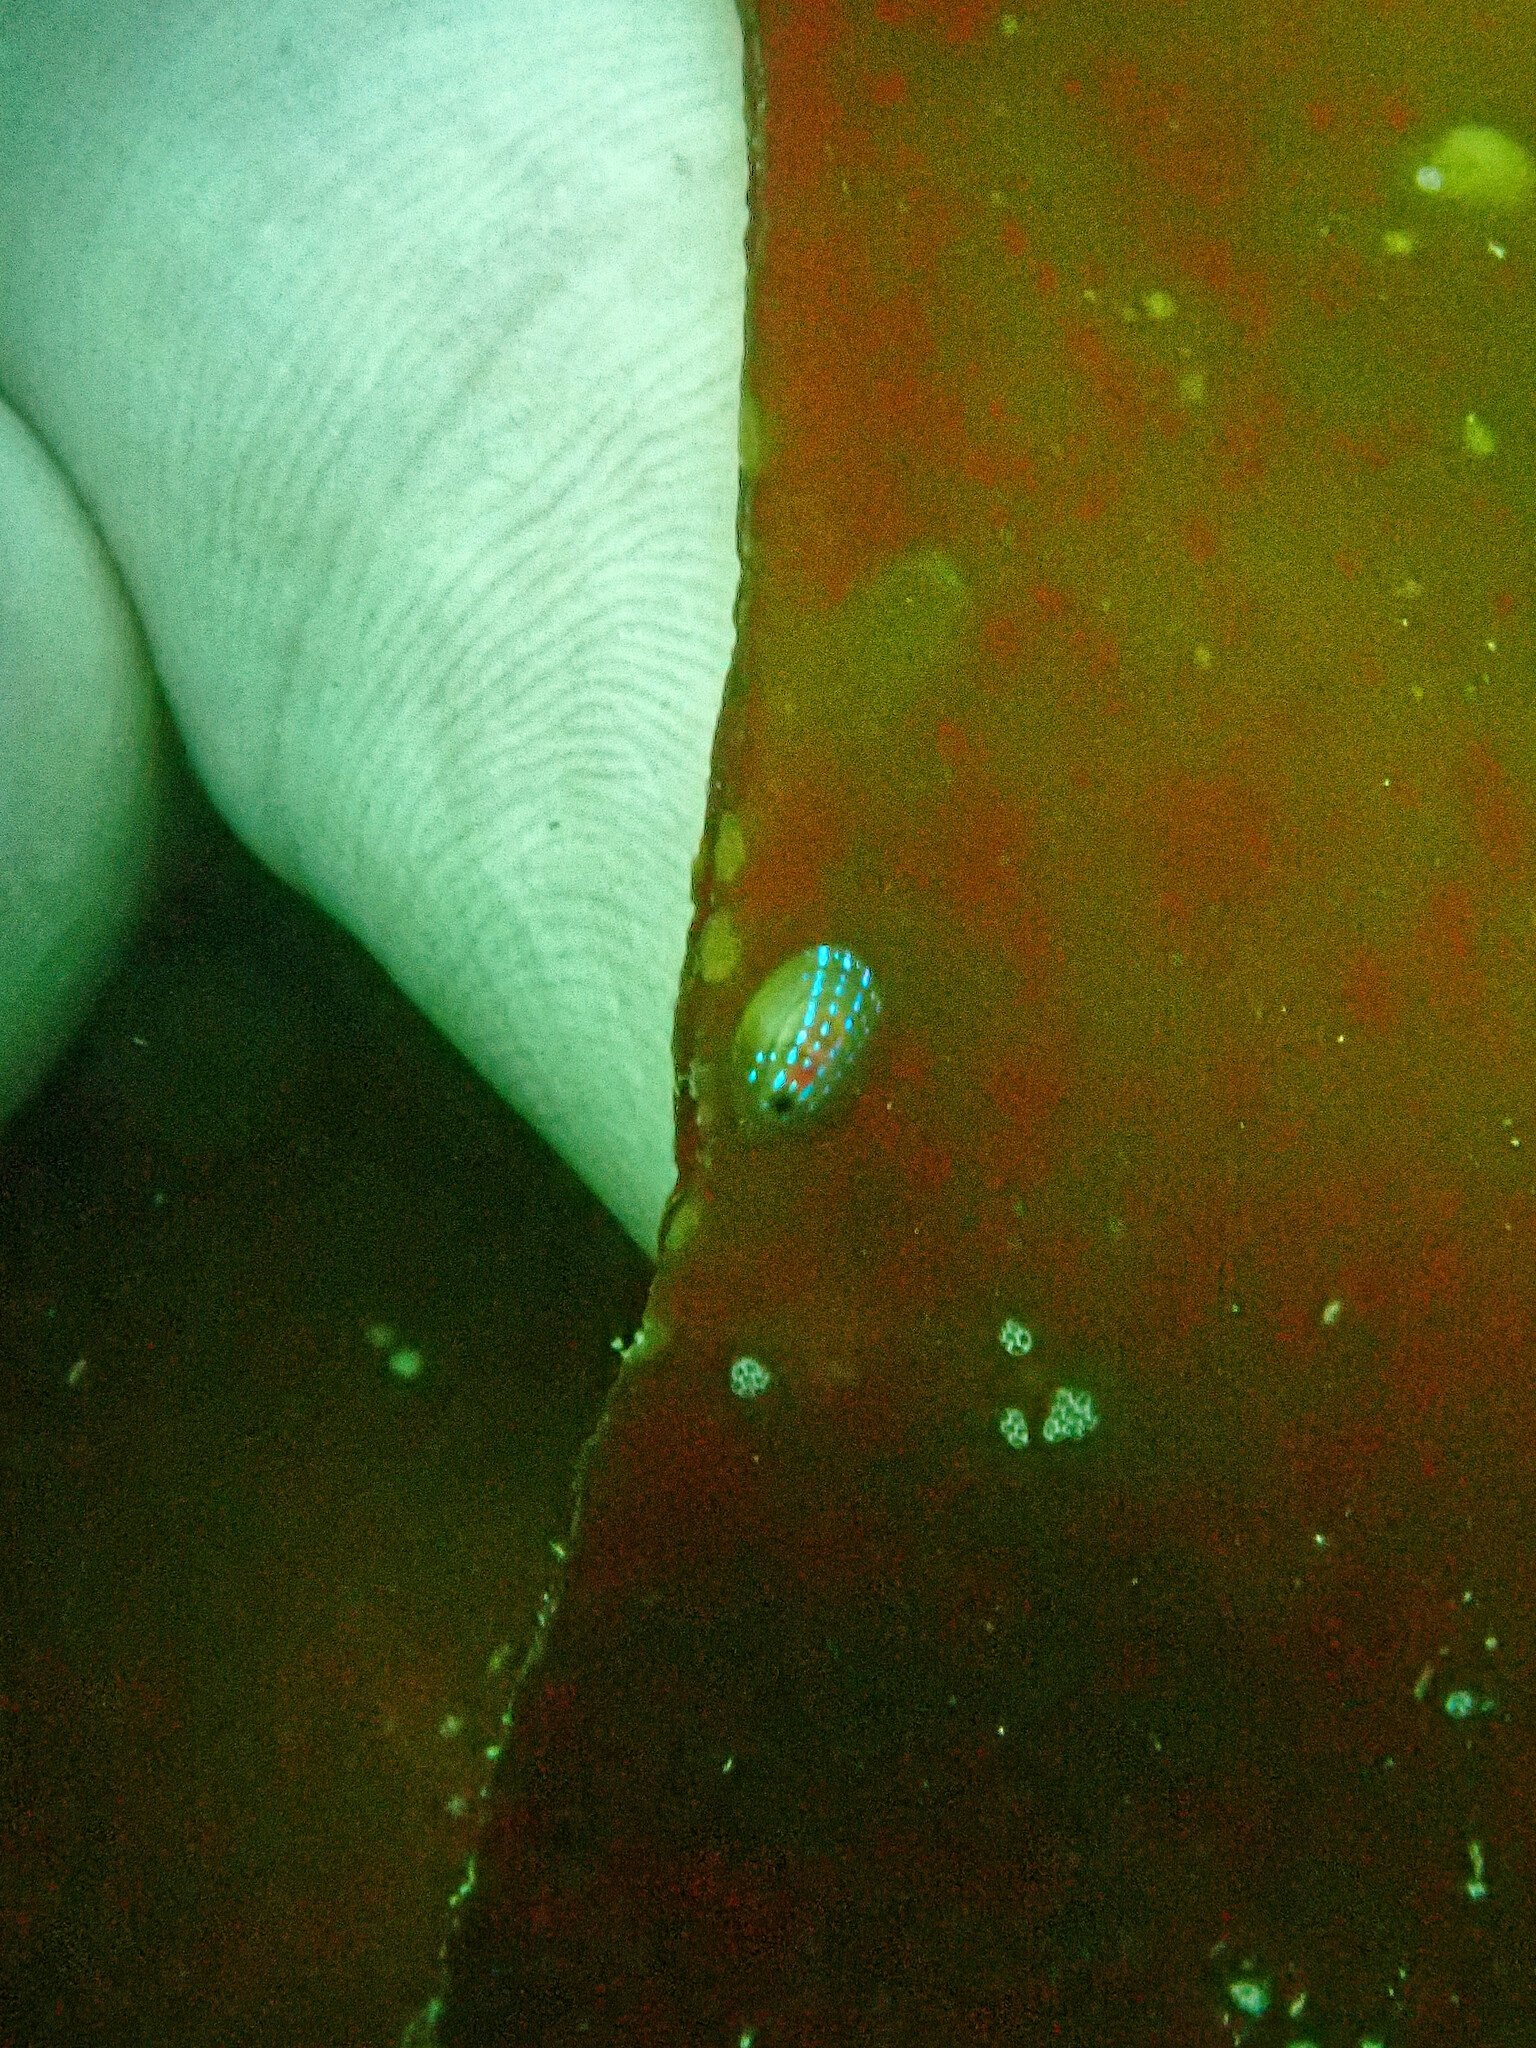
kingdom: Animalia
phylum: Mollusca
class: Gastropoda
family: Patellidae
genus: Patella
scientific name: Patella pellucida
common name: Blue-rayed limpet
